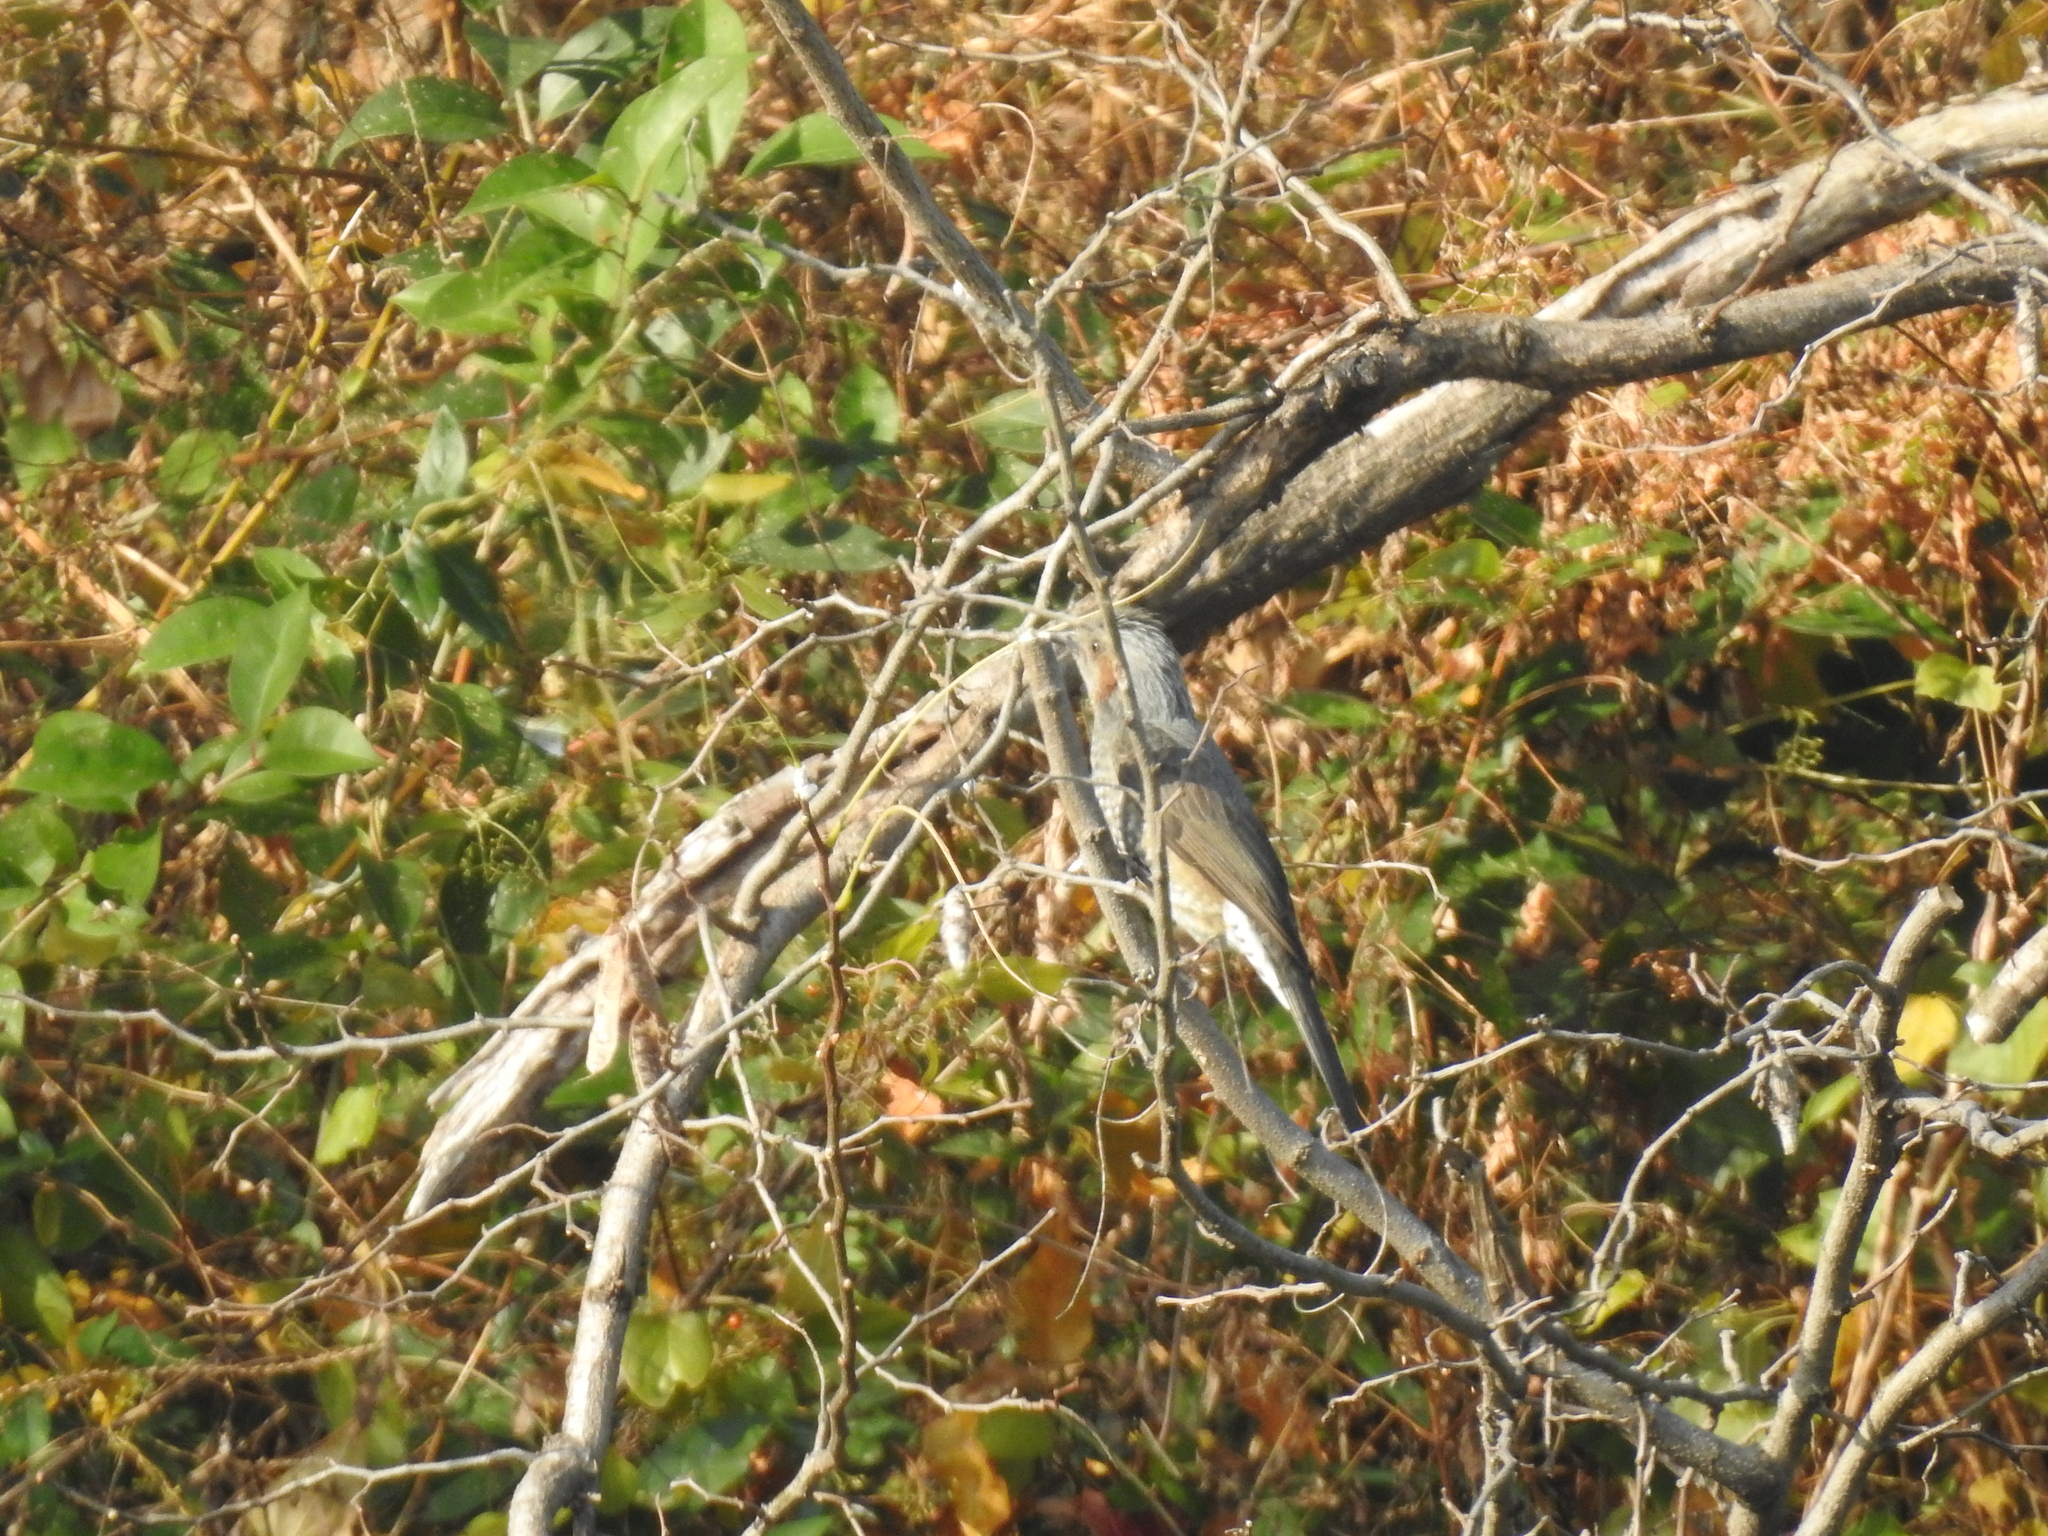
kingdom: Animalia
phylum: Chordata
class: Aves
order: Passeriformes
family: Pycnonotidae
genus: Hypsipetes
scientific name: Hypsipetes amaurotis
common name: Brown-eared bulbul
